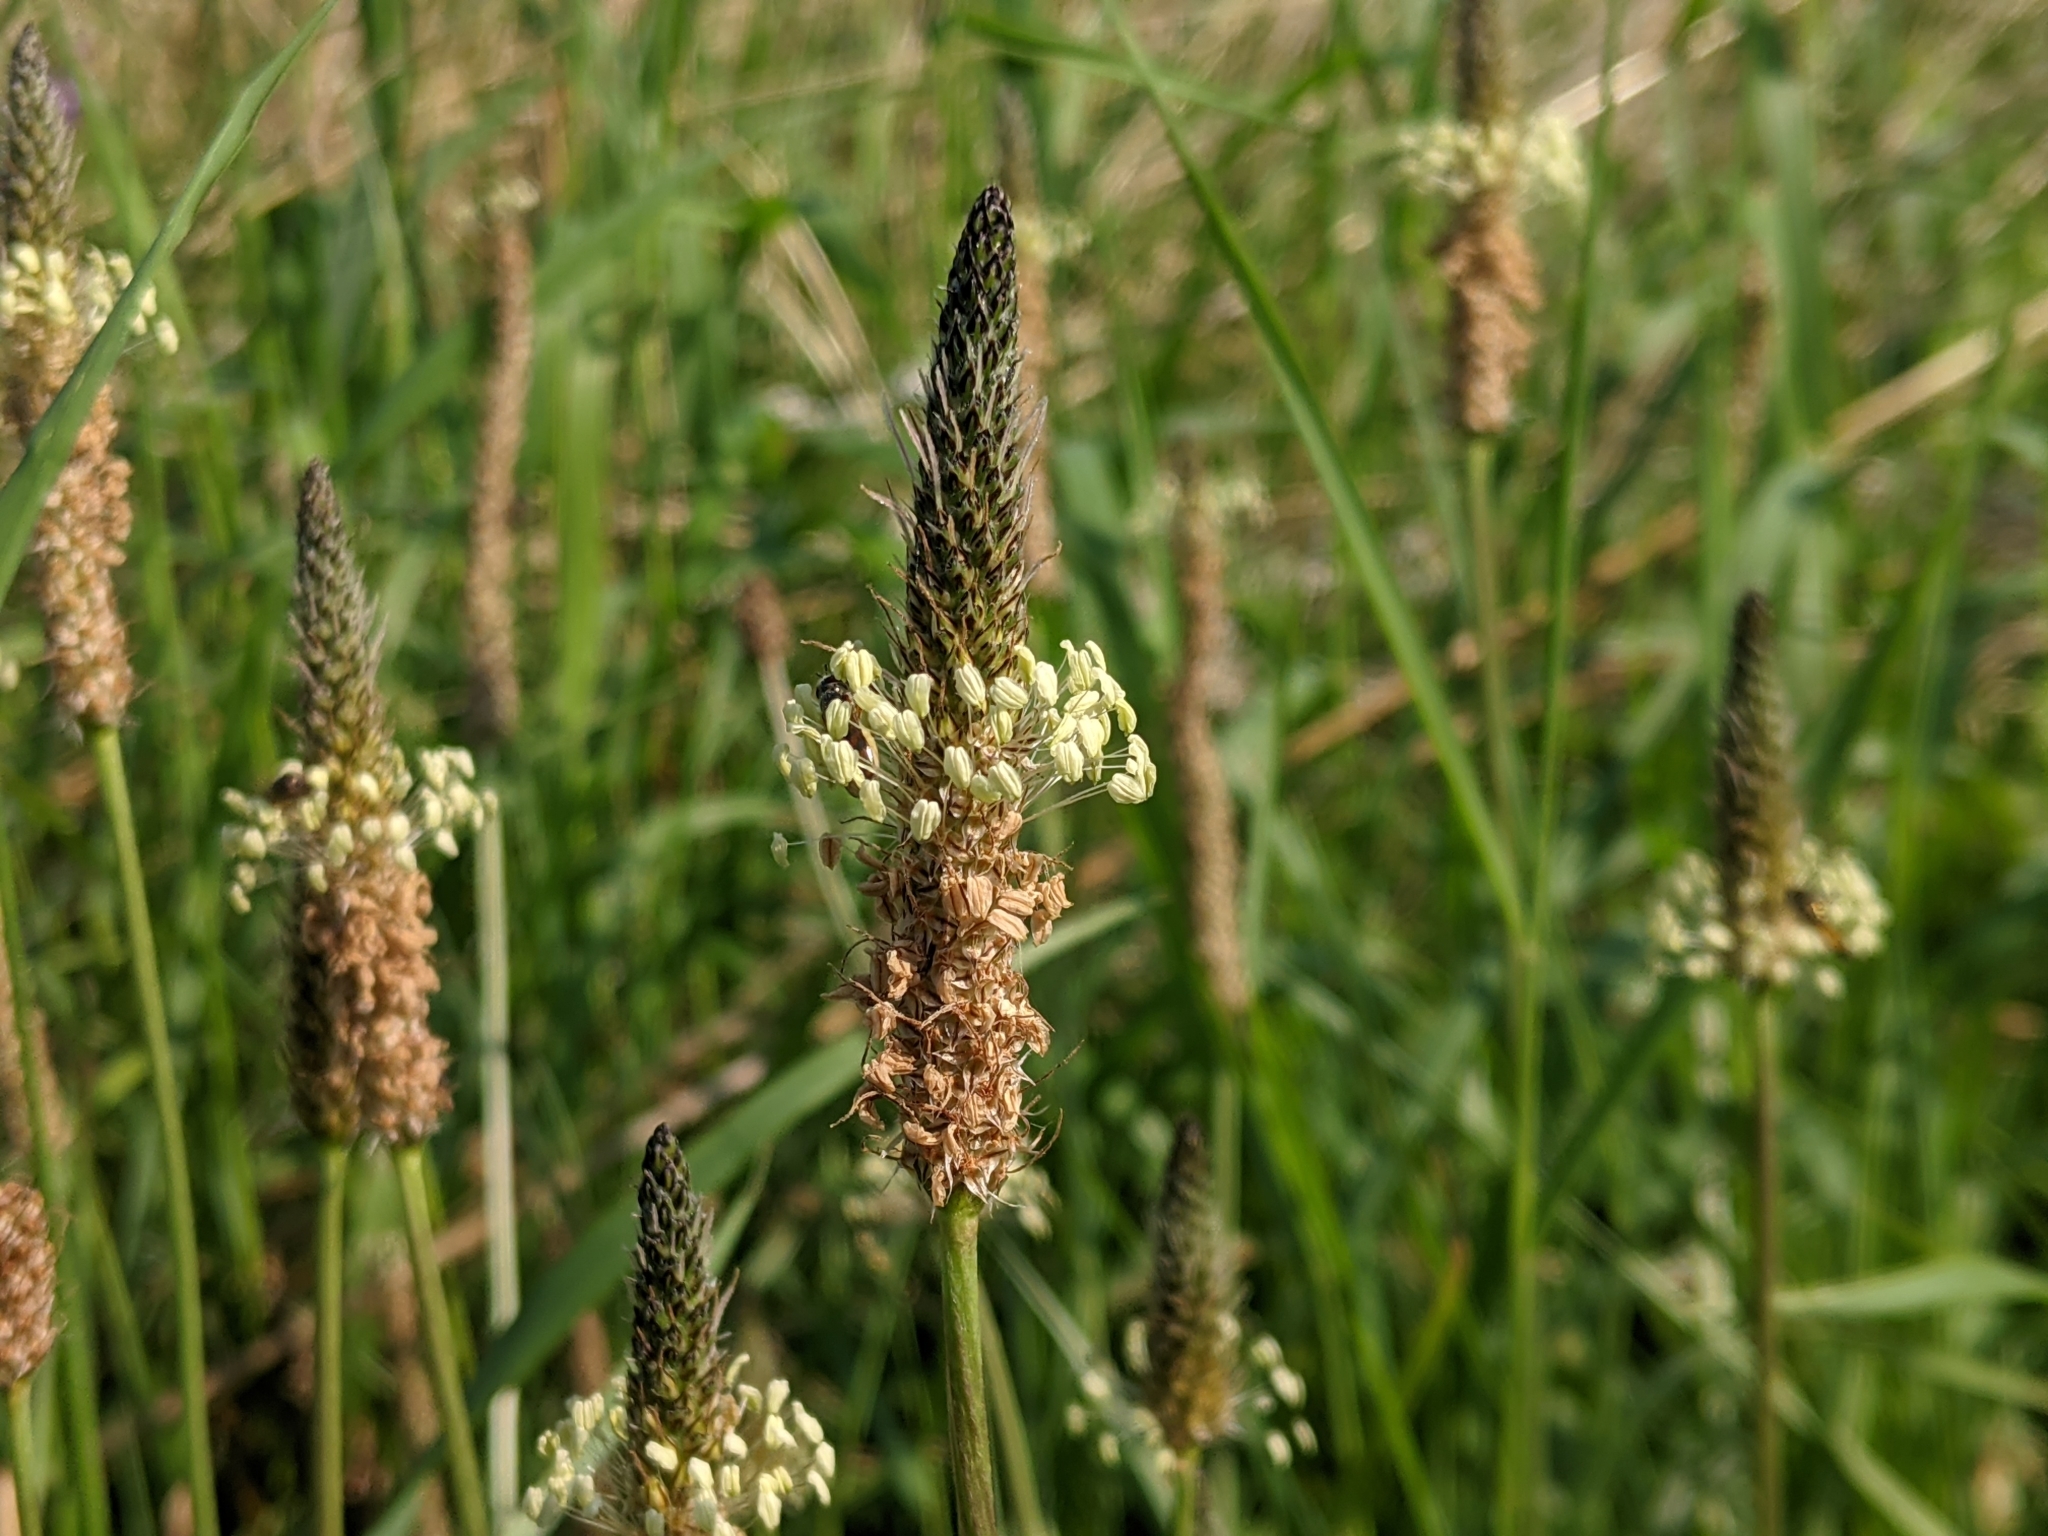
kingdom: Plantae
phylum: Tracheophyta
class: Magnoliopsida
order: Lamiales
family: Plantaginaceae
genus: Plantago
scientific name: Plantago lanceolata
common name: Ribwort plantain
